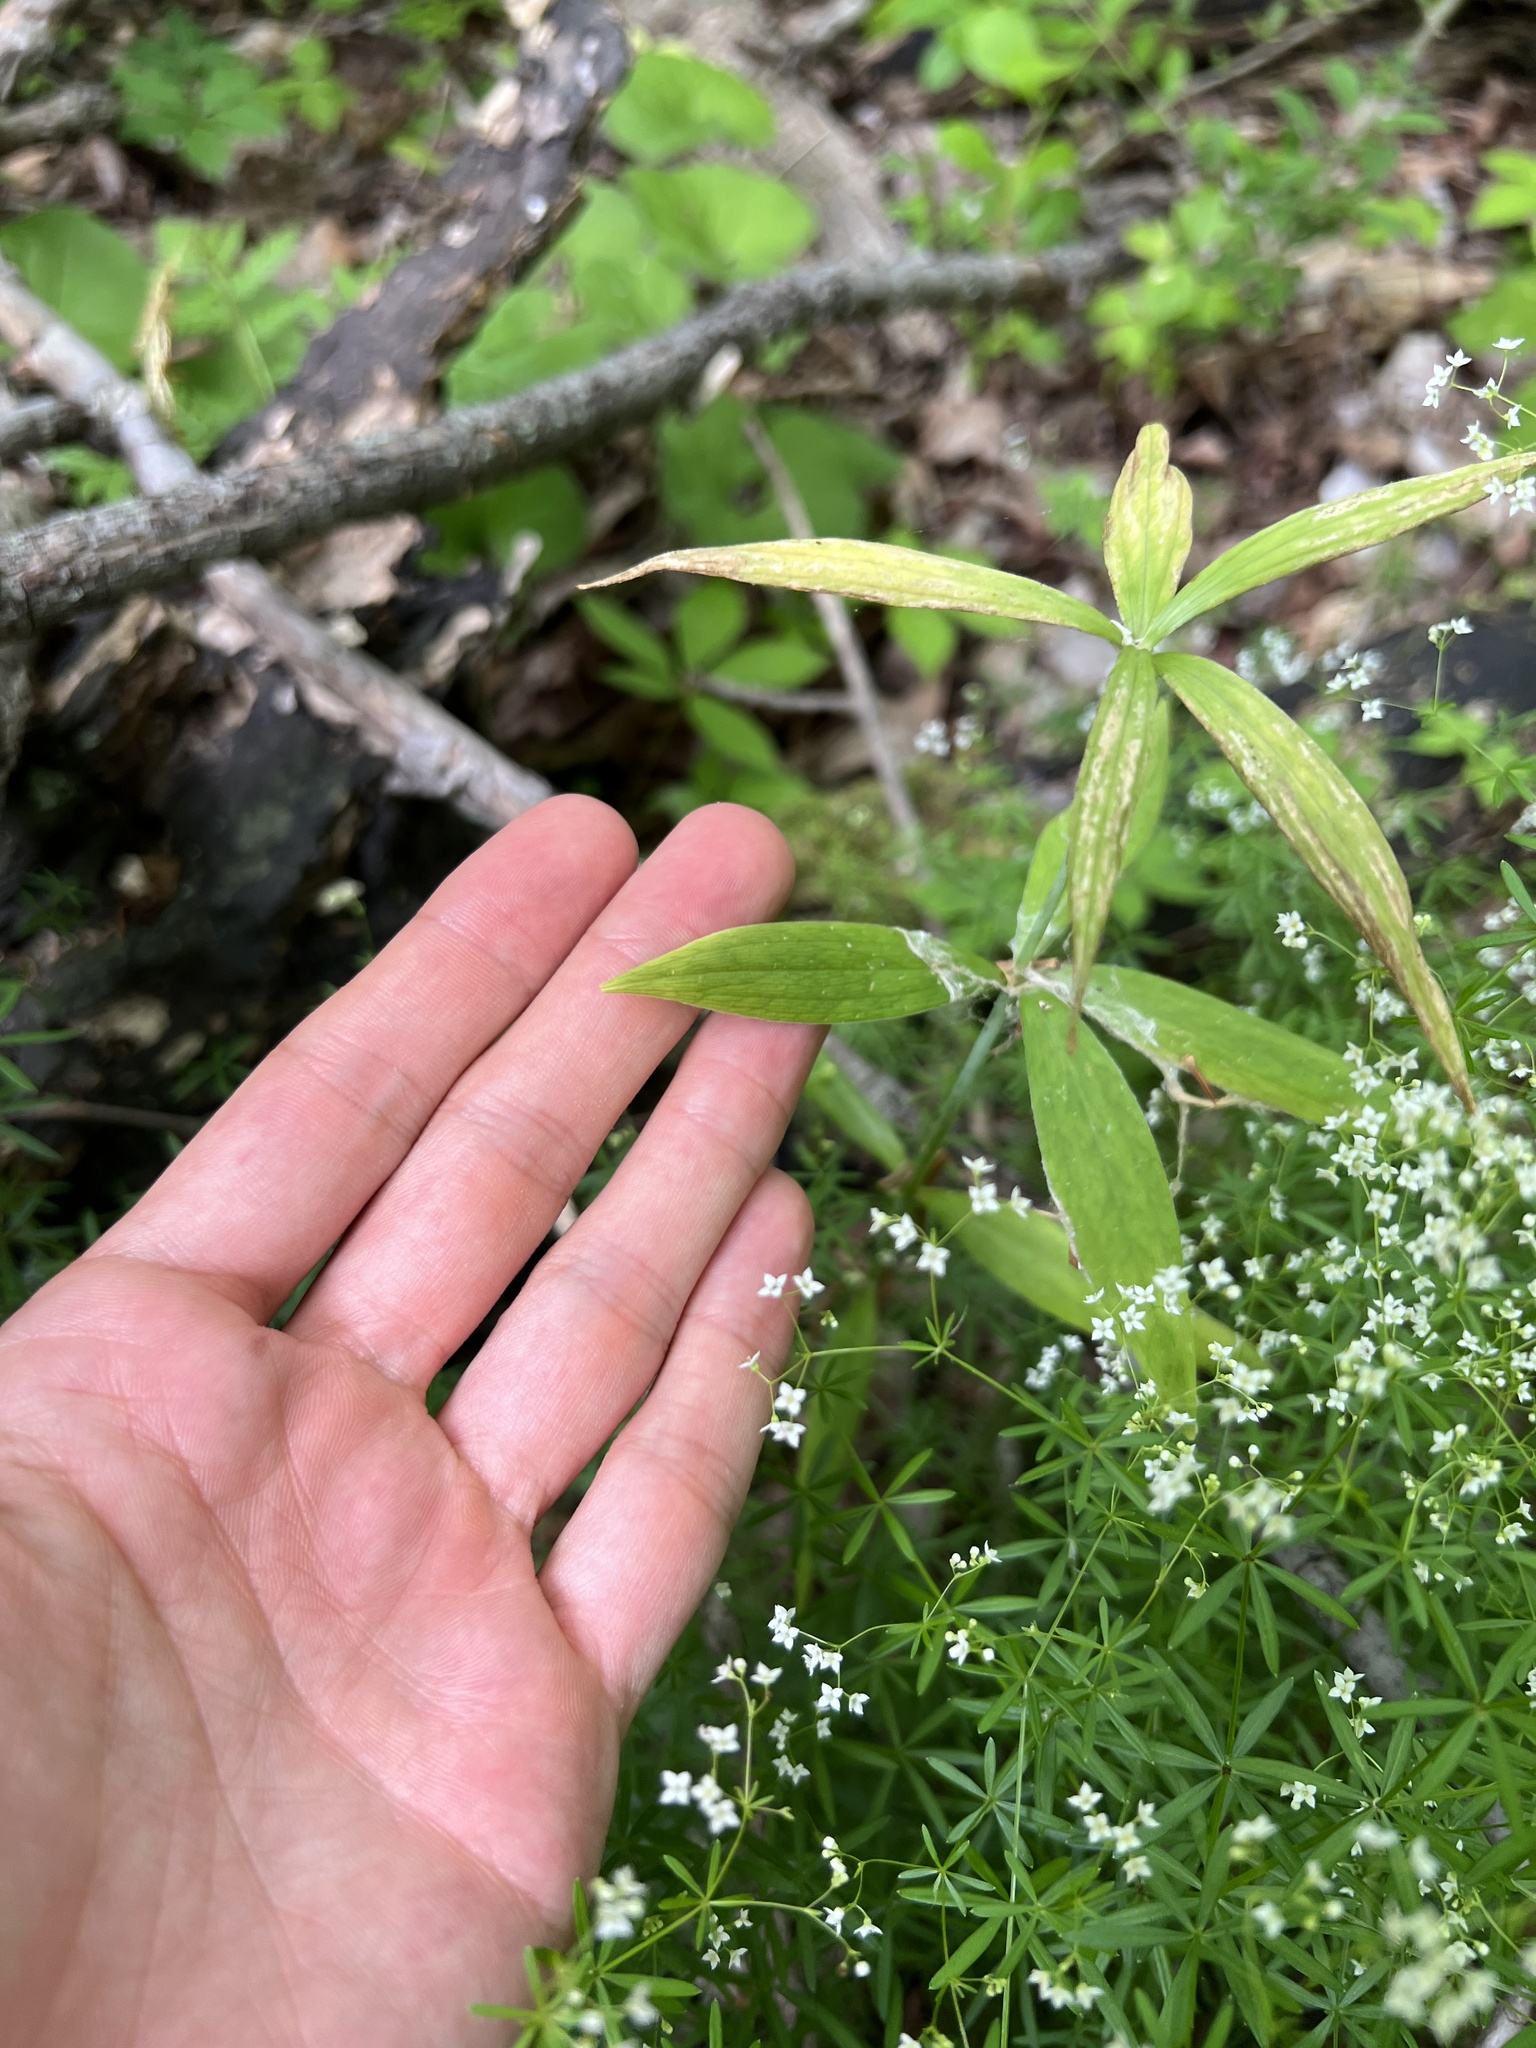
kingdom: Plantae
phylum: Tracheophyta
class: Liliopsida
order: Liliales
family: Liliaceae
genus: Lilium
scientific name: Lilium michiganense
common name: Michigan lily
